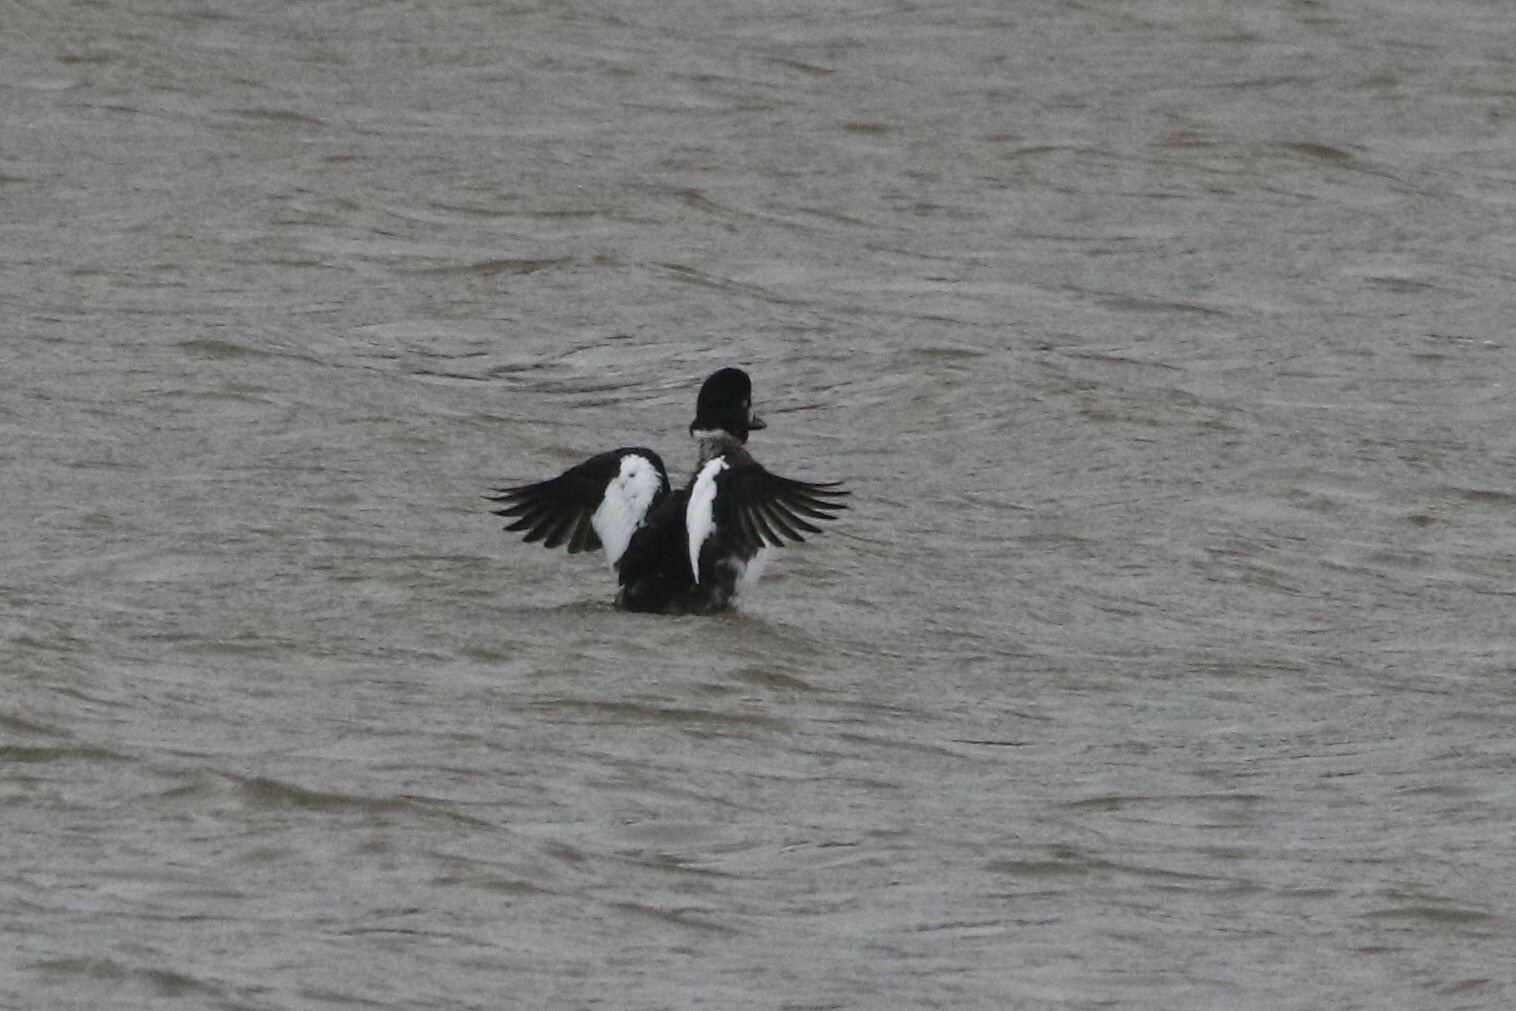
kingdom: Animalia
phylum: Chordata
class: Aves
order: Anseriformes
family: Anatidae
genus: Bucephala
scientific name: Bucephala clangula
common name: Common goldeneye
